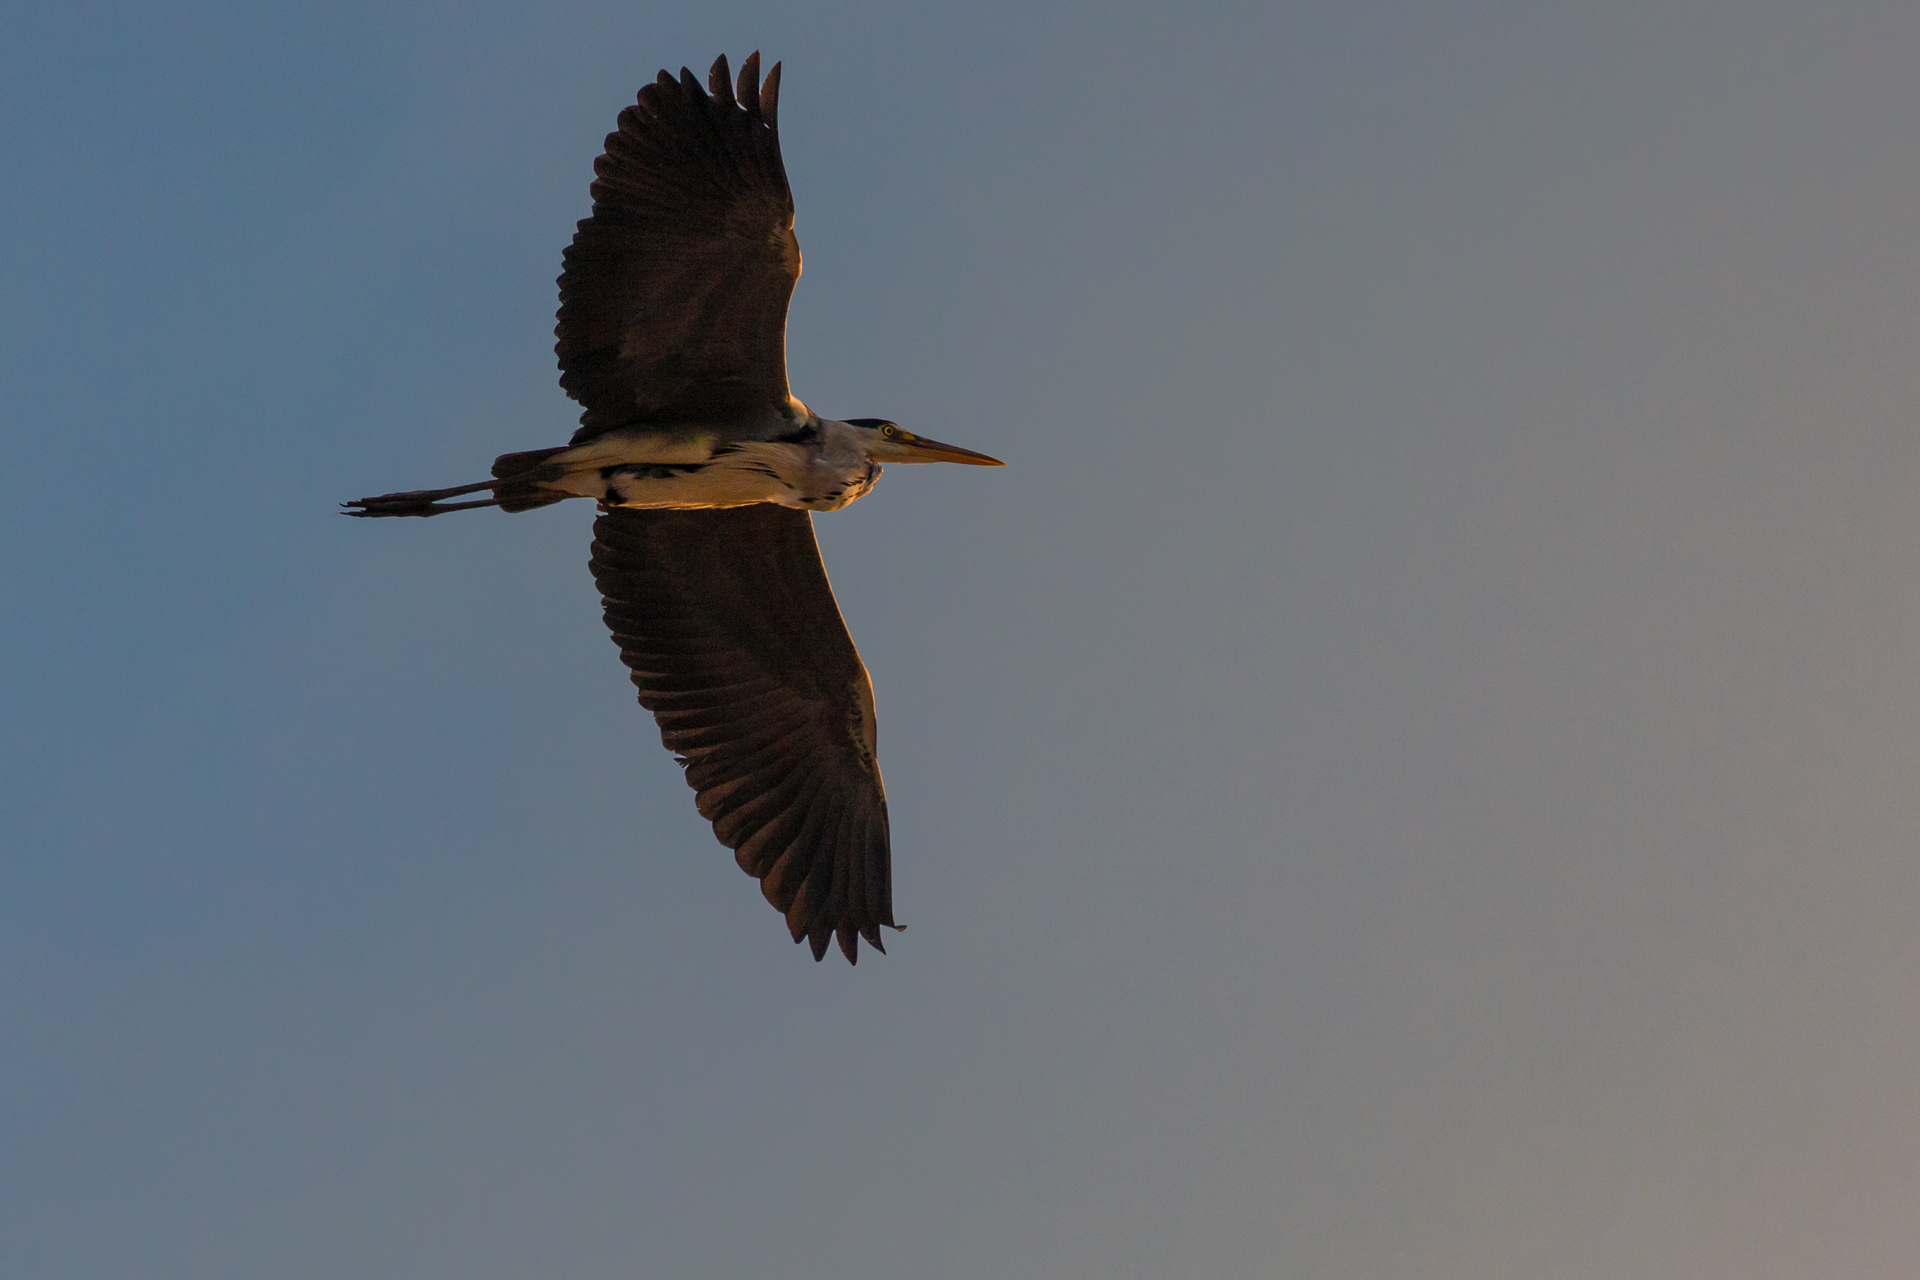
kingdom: Animalia
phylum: Chordata
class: Aves
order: Pelecaniformes
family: Ardeidae
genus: Ardea
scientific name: Ardea cinerea
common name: Grey heron
